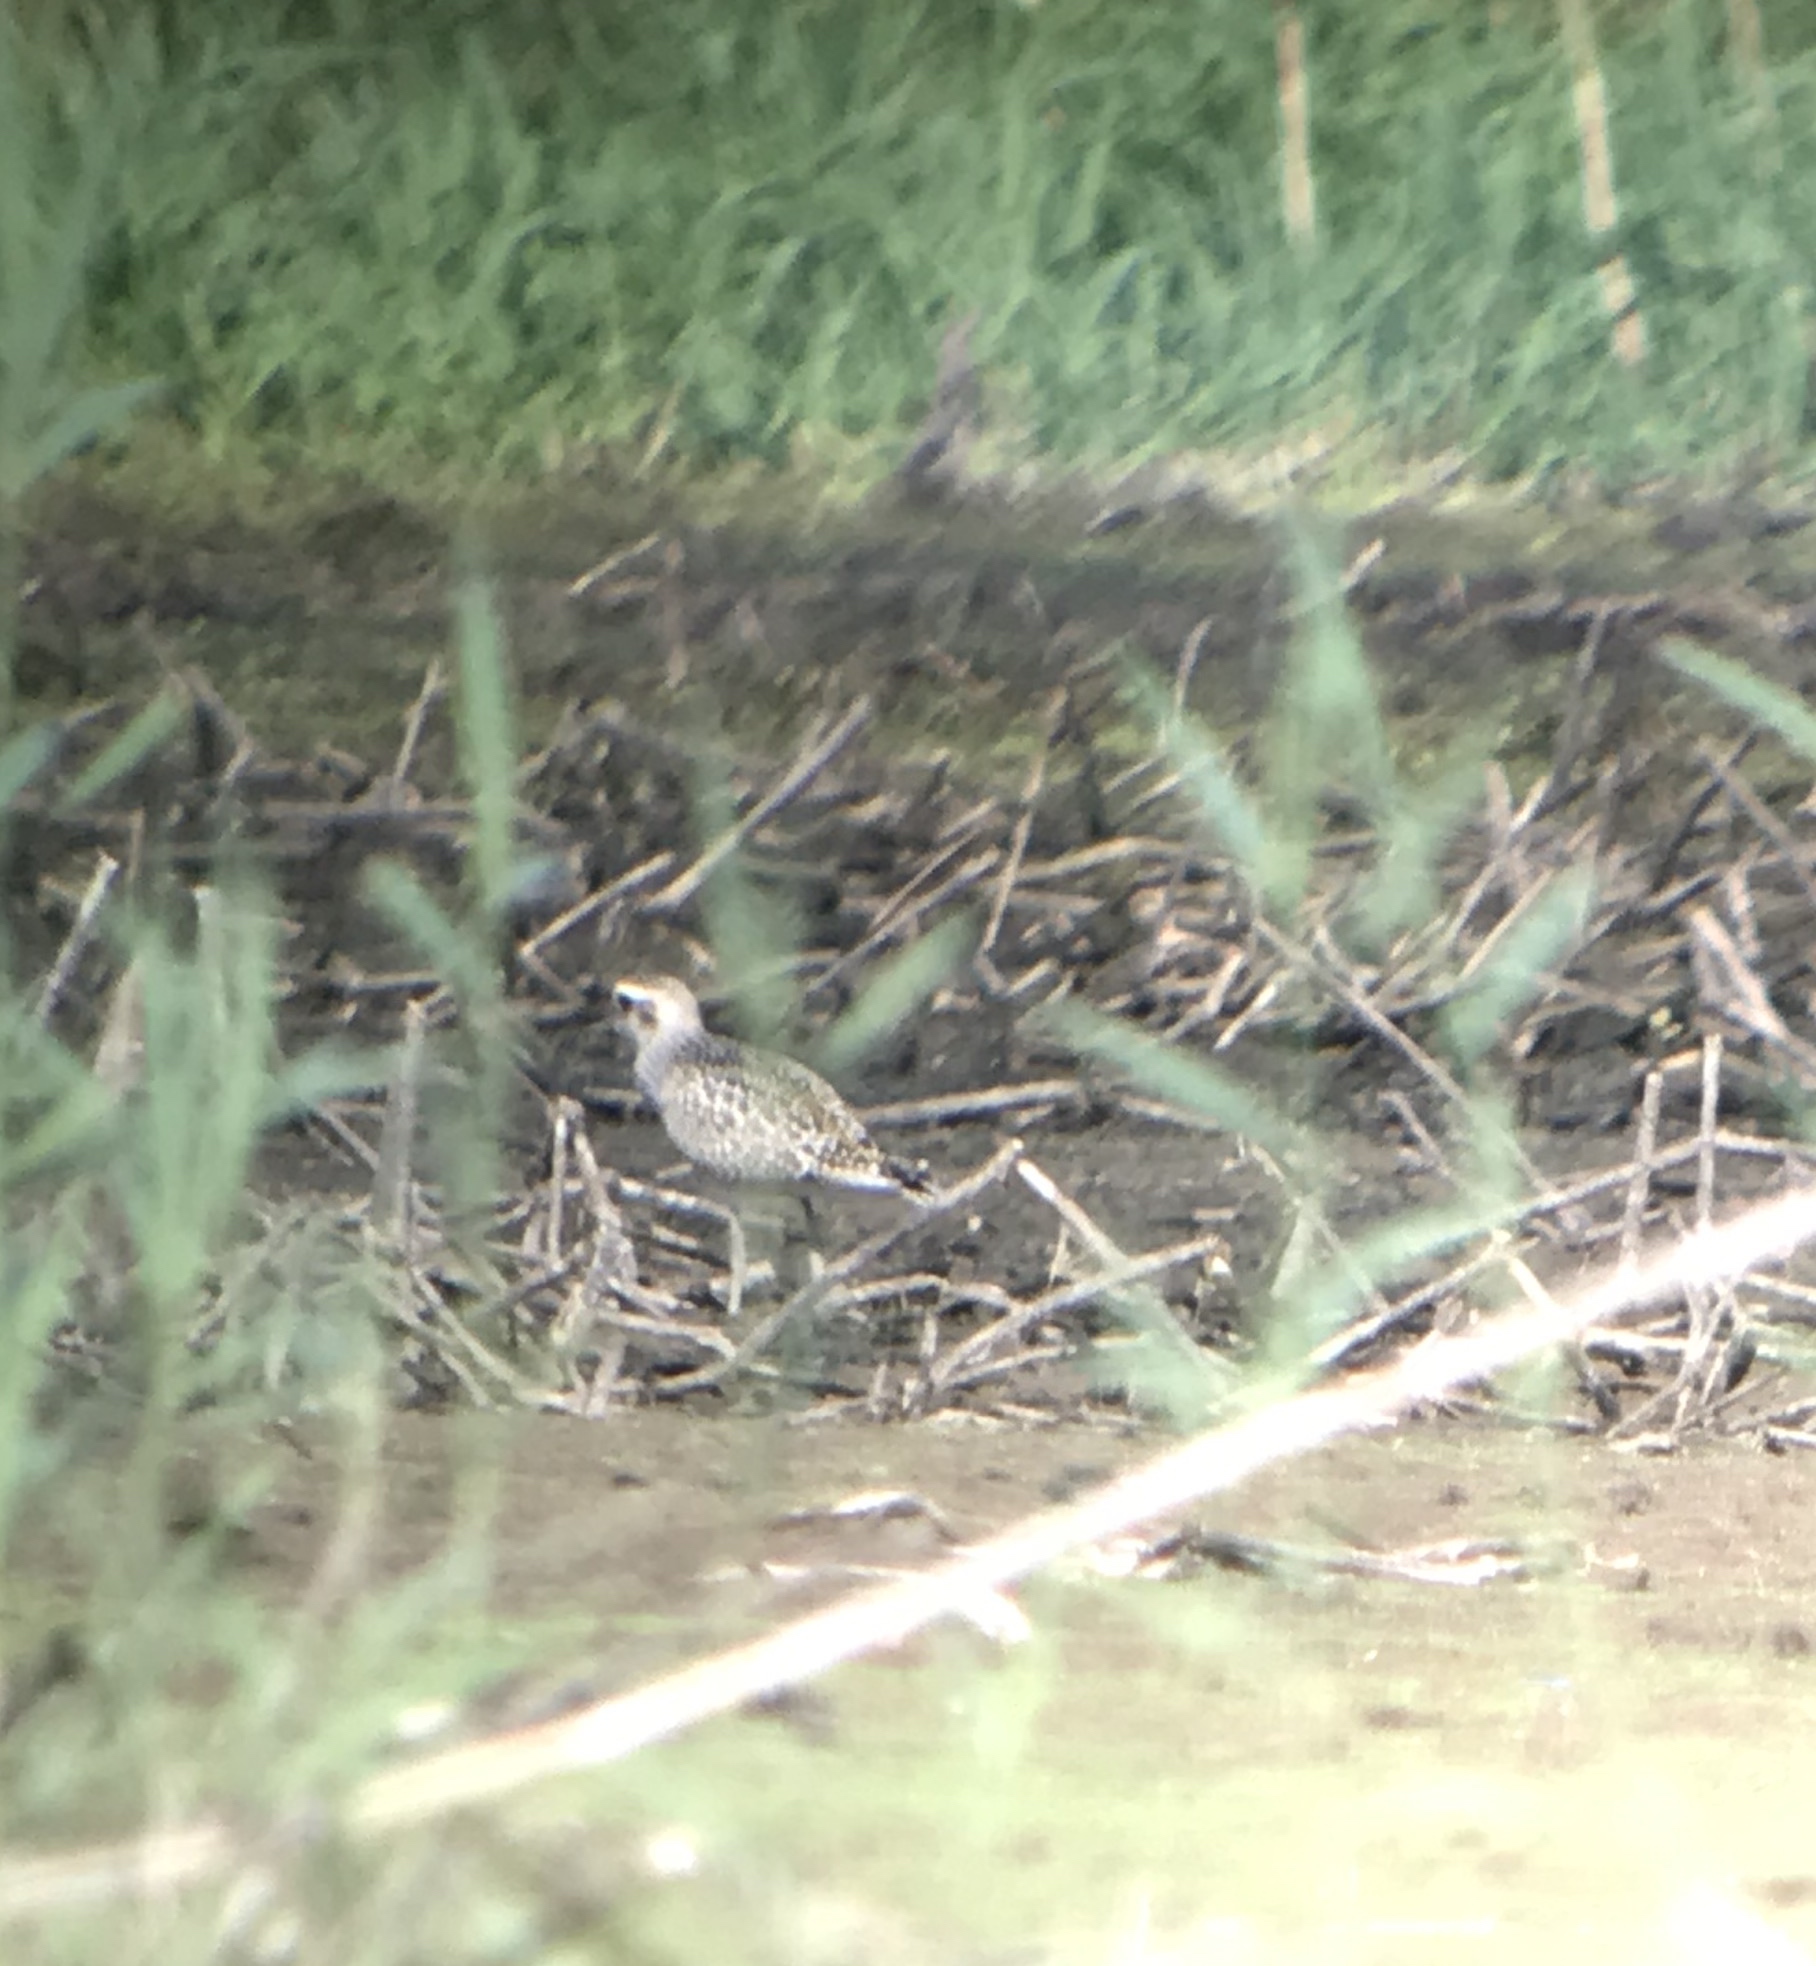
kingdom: Animalia
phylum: Chordata
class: Aves
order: Charadriiformes
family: Charadriidae
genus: Pluvialis
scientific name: Pluvialis dominica
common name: American golden plover
